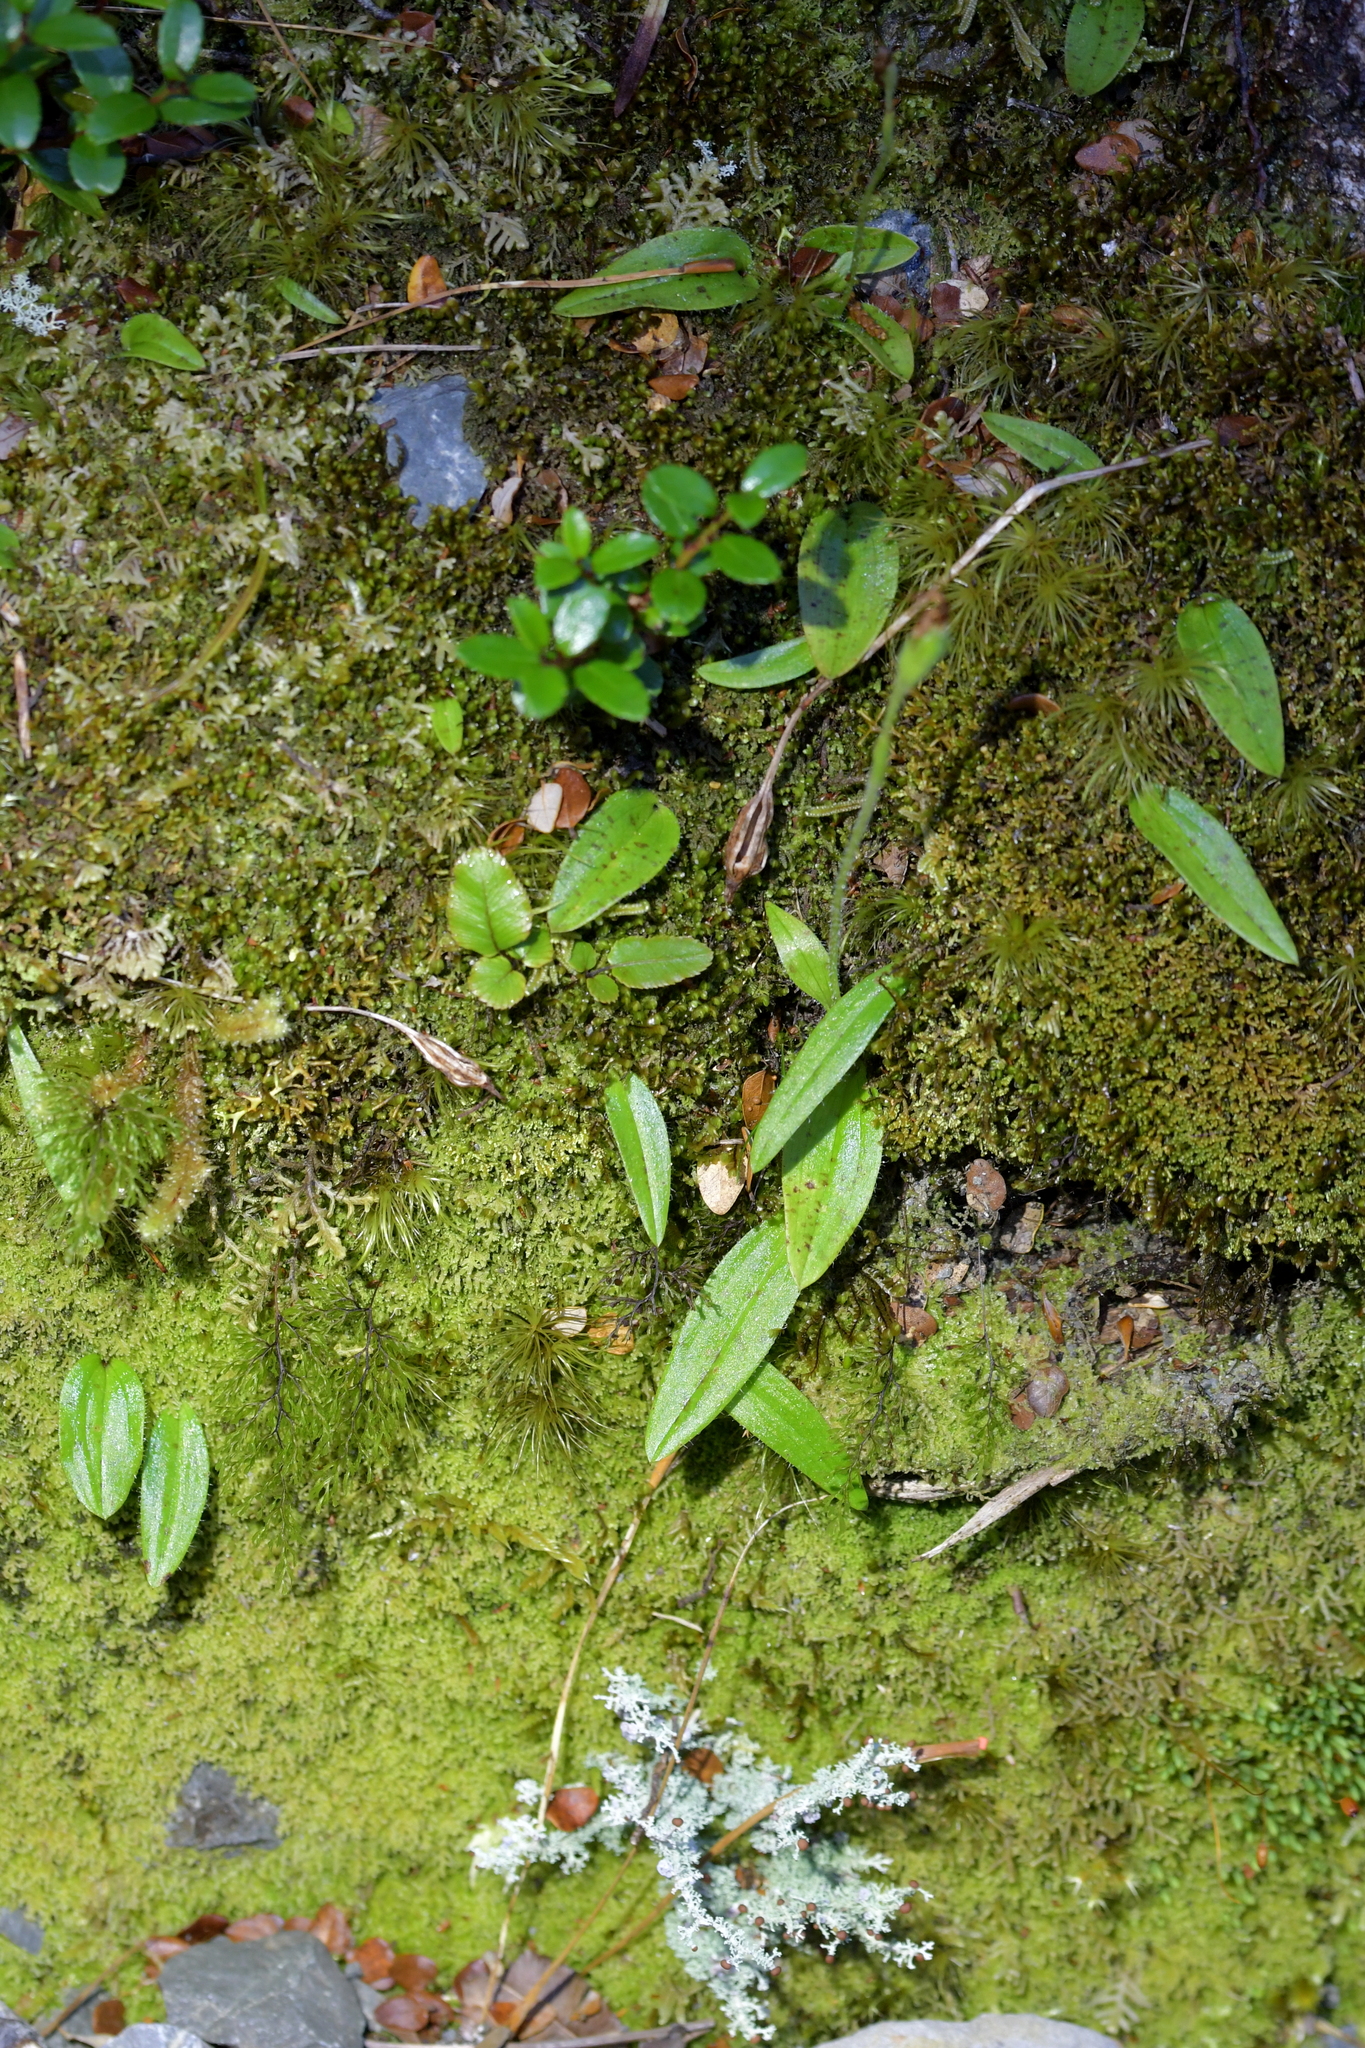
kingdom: Plantae
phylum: Tracheophyta
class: Liliopsida
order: Asparagales
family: Orchidaceae
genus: Aporostylis
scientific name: Aporostylis bifolia
